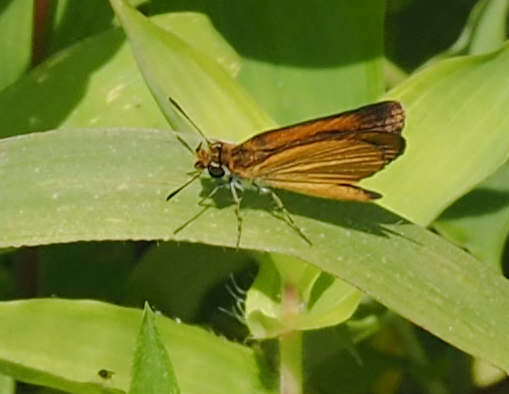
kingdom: Animalia
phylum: Arthropoda
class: Insecta
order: Lepidoptera
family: Hesperiidae
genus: Ancyloxypha
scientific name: Ancyloxypha numitor
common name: Least skipper
